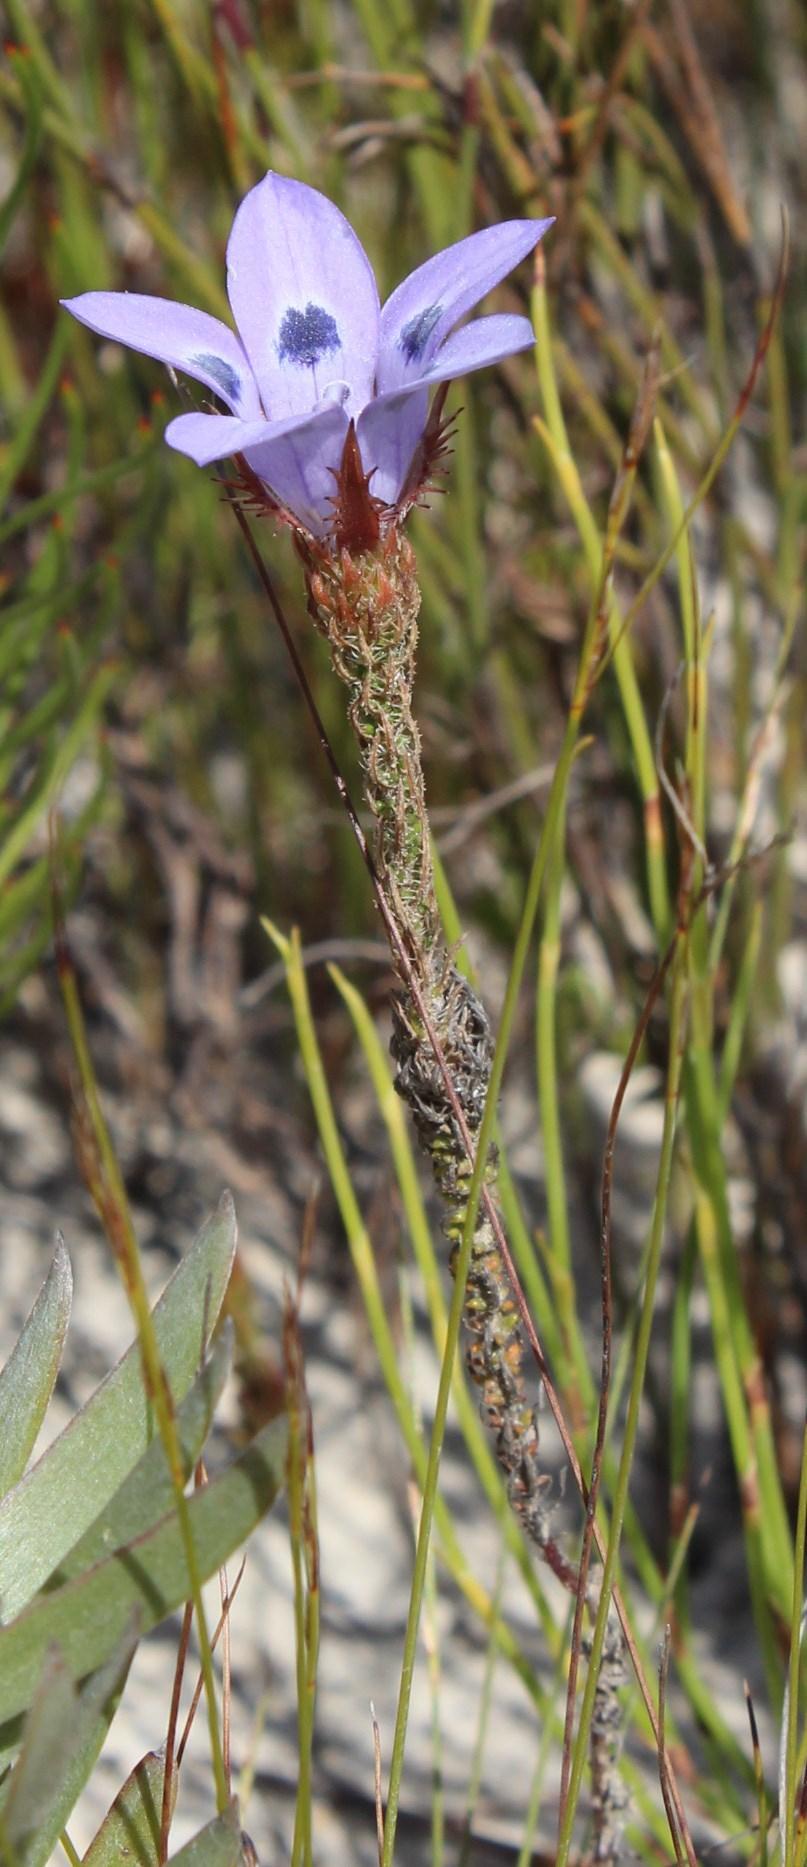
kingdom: Plantae
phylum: Tracheophyta
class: Magnoliopsida
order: Asterales
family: Campanulaceae
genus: Roella
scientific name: Roella incurva
